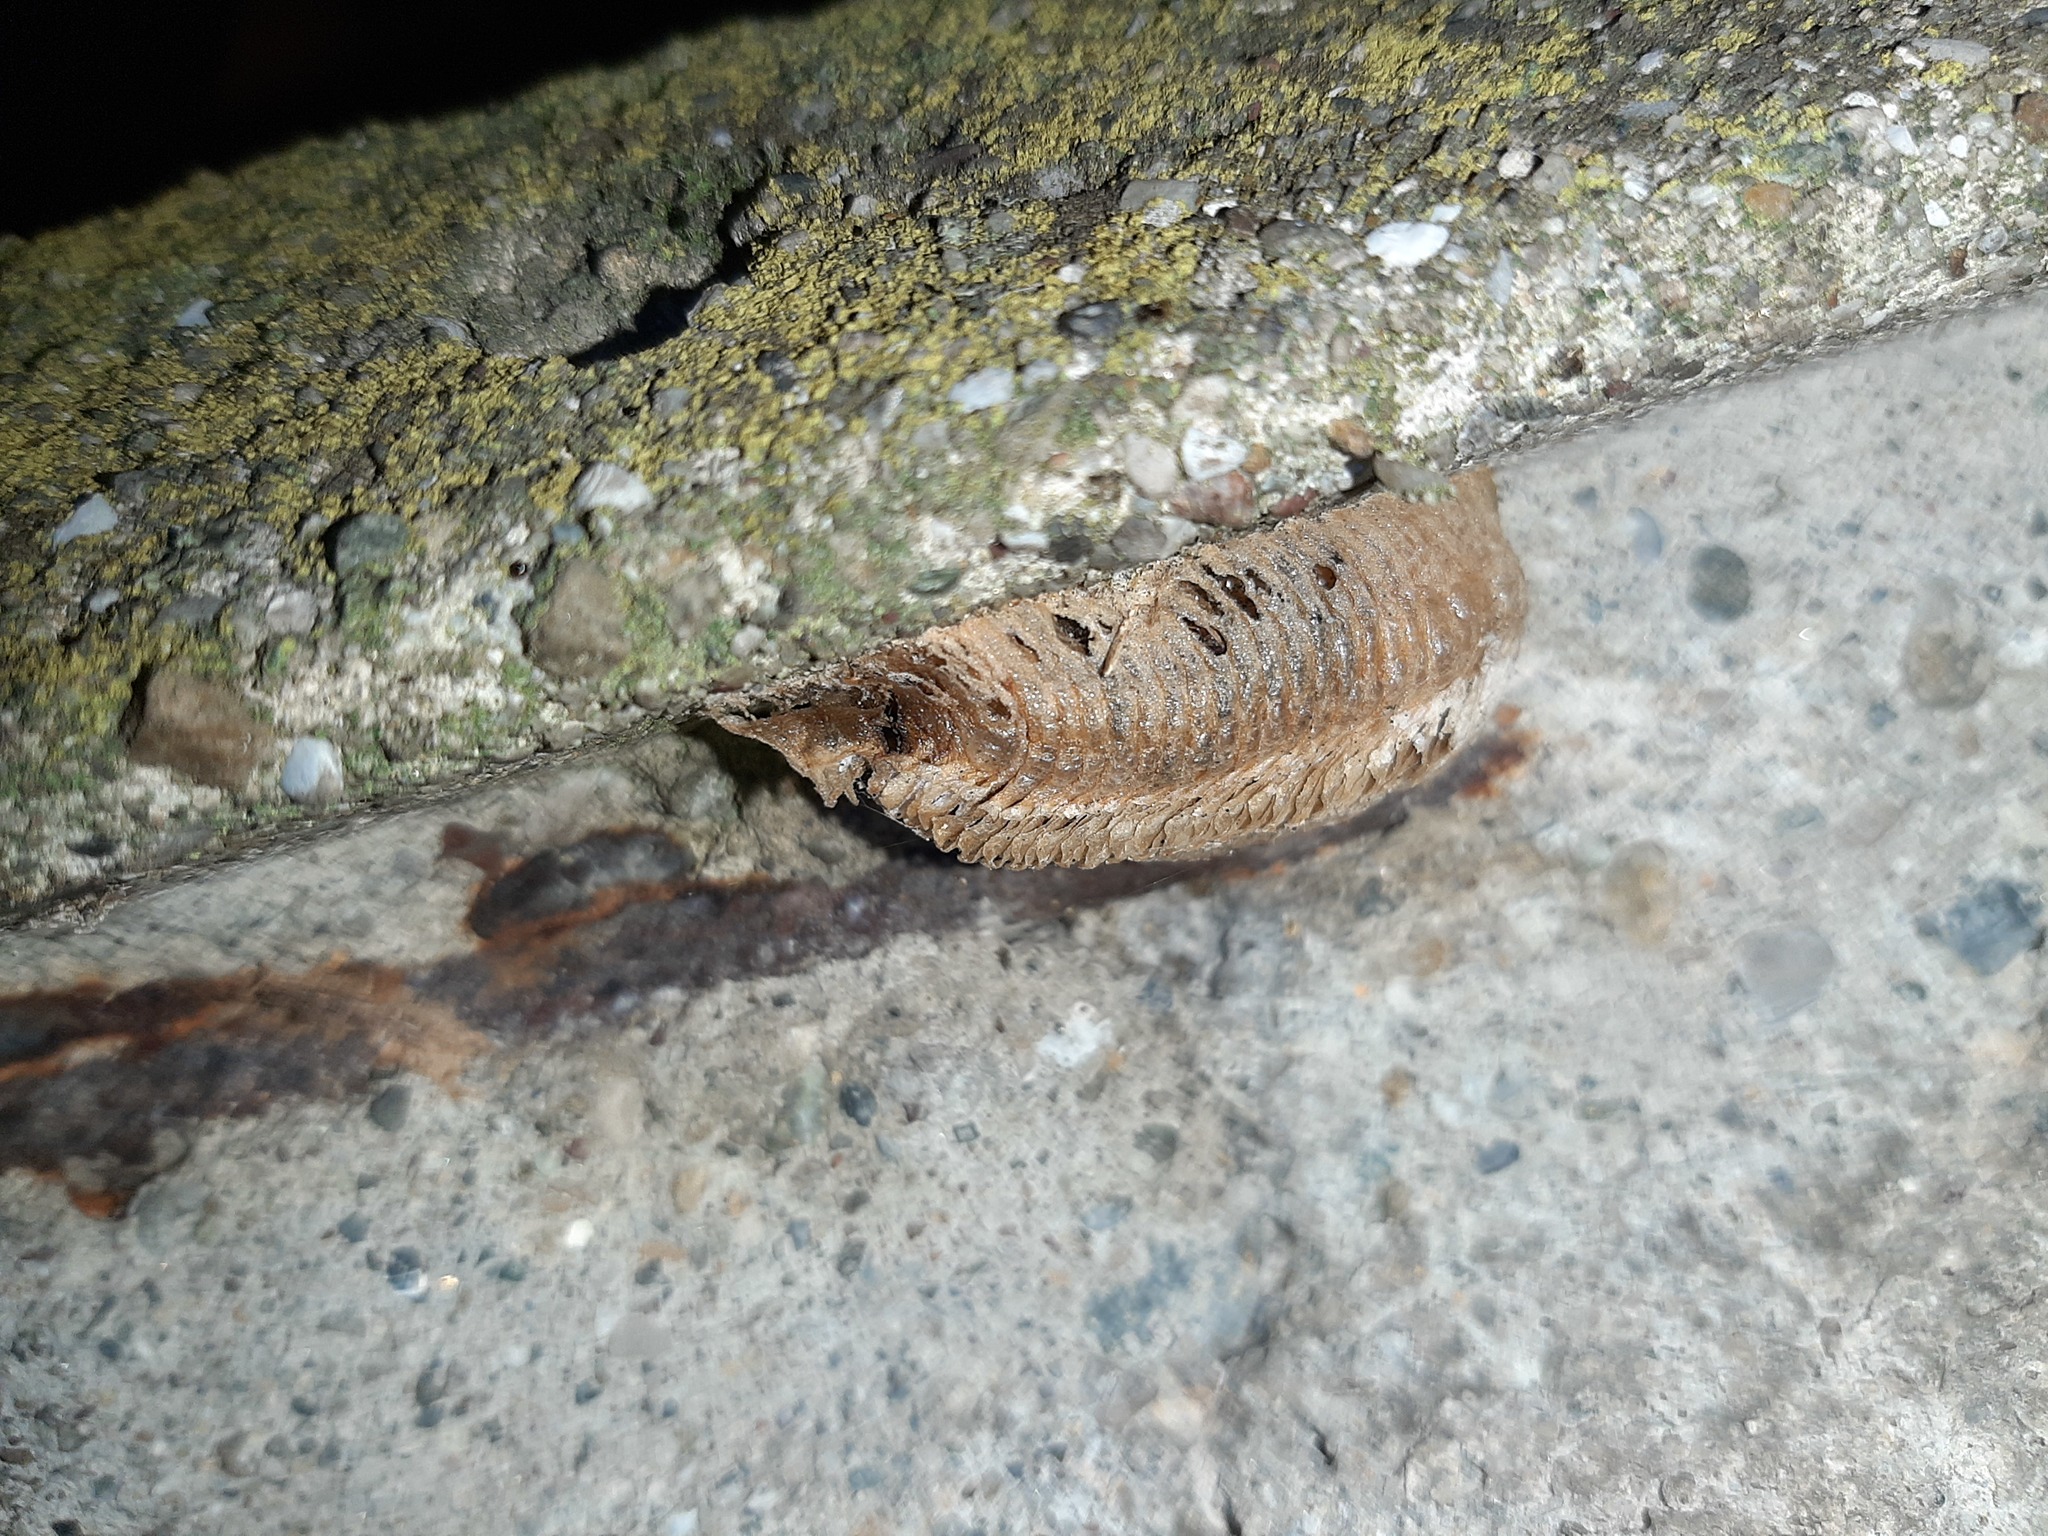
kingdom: Animalia
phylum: Arthropoda
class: Insecta
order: Mantodea
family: Mantidae
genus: Mantis
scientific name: Mantis religiosa
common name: Praying mantis
